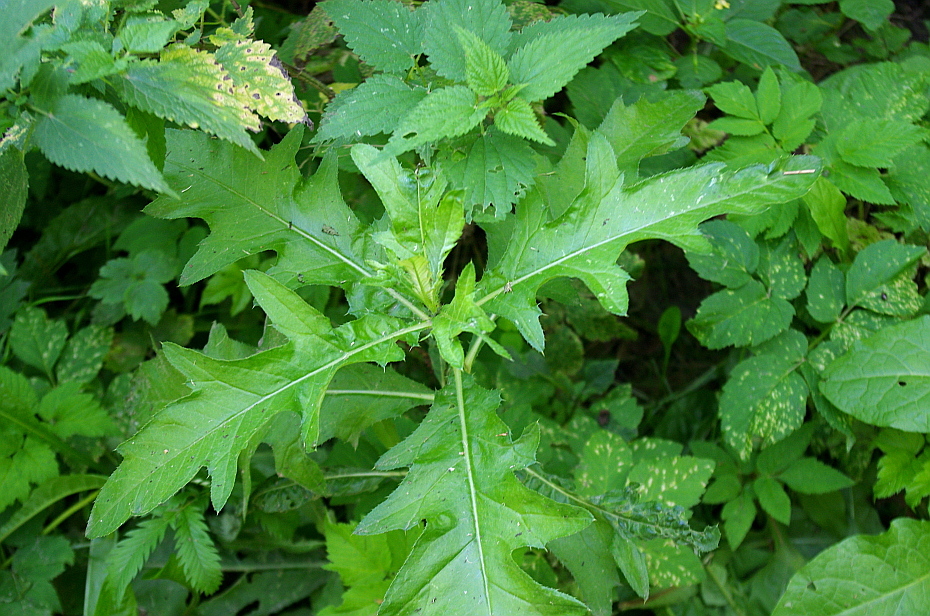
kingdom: Plantae
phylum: Tracheophyta
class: Magnoliopsida
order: Asterales
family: Asteraceae
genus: Cirsium
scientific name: Cirsium arvense
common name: Creeping thistle
